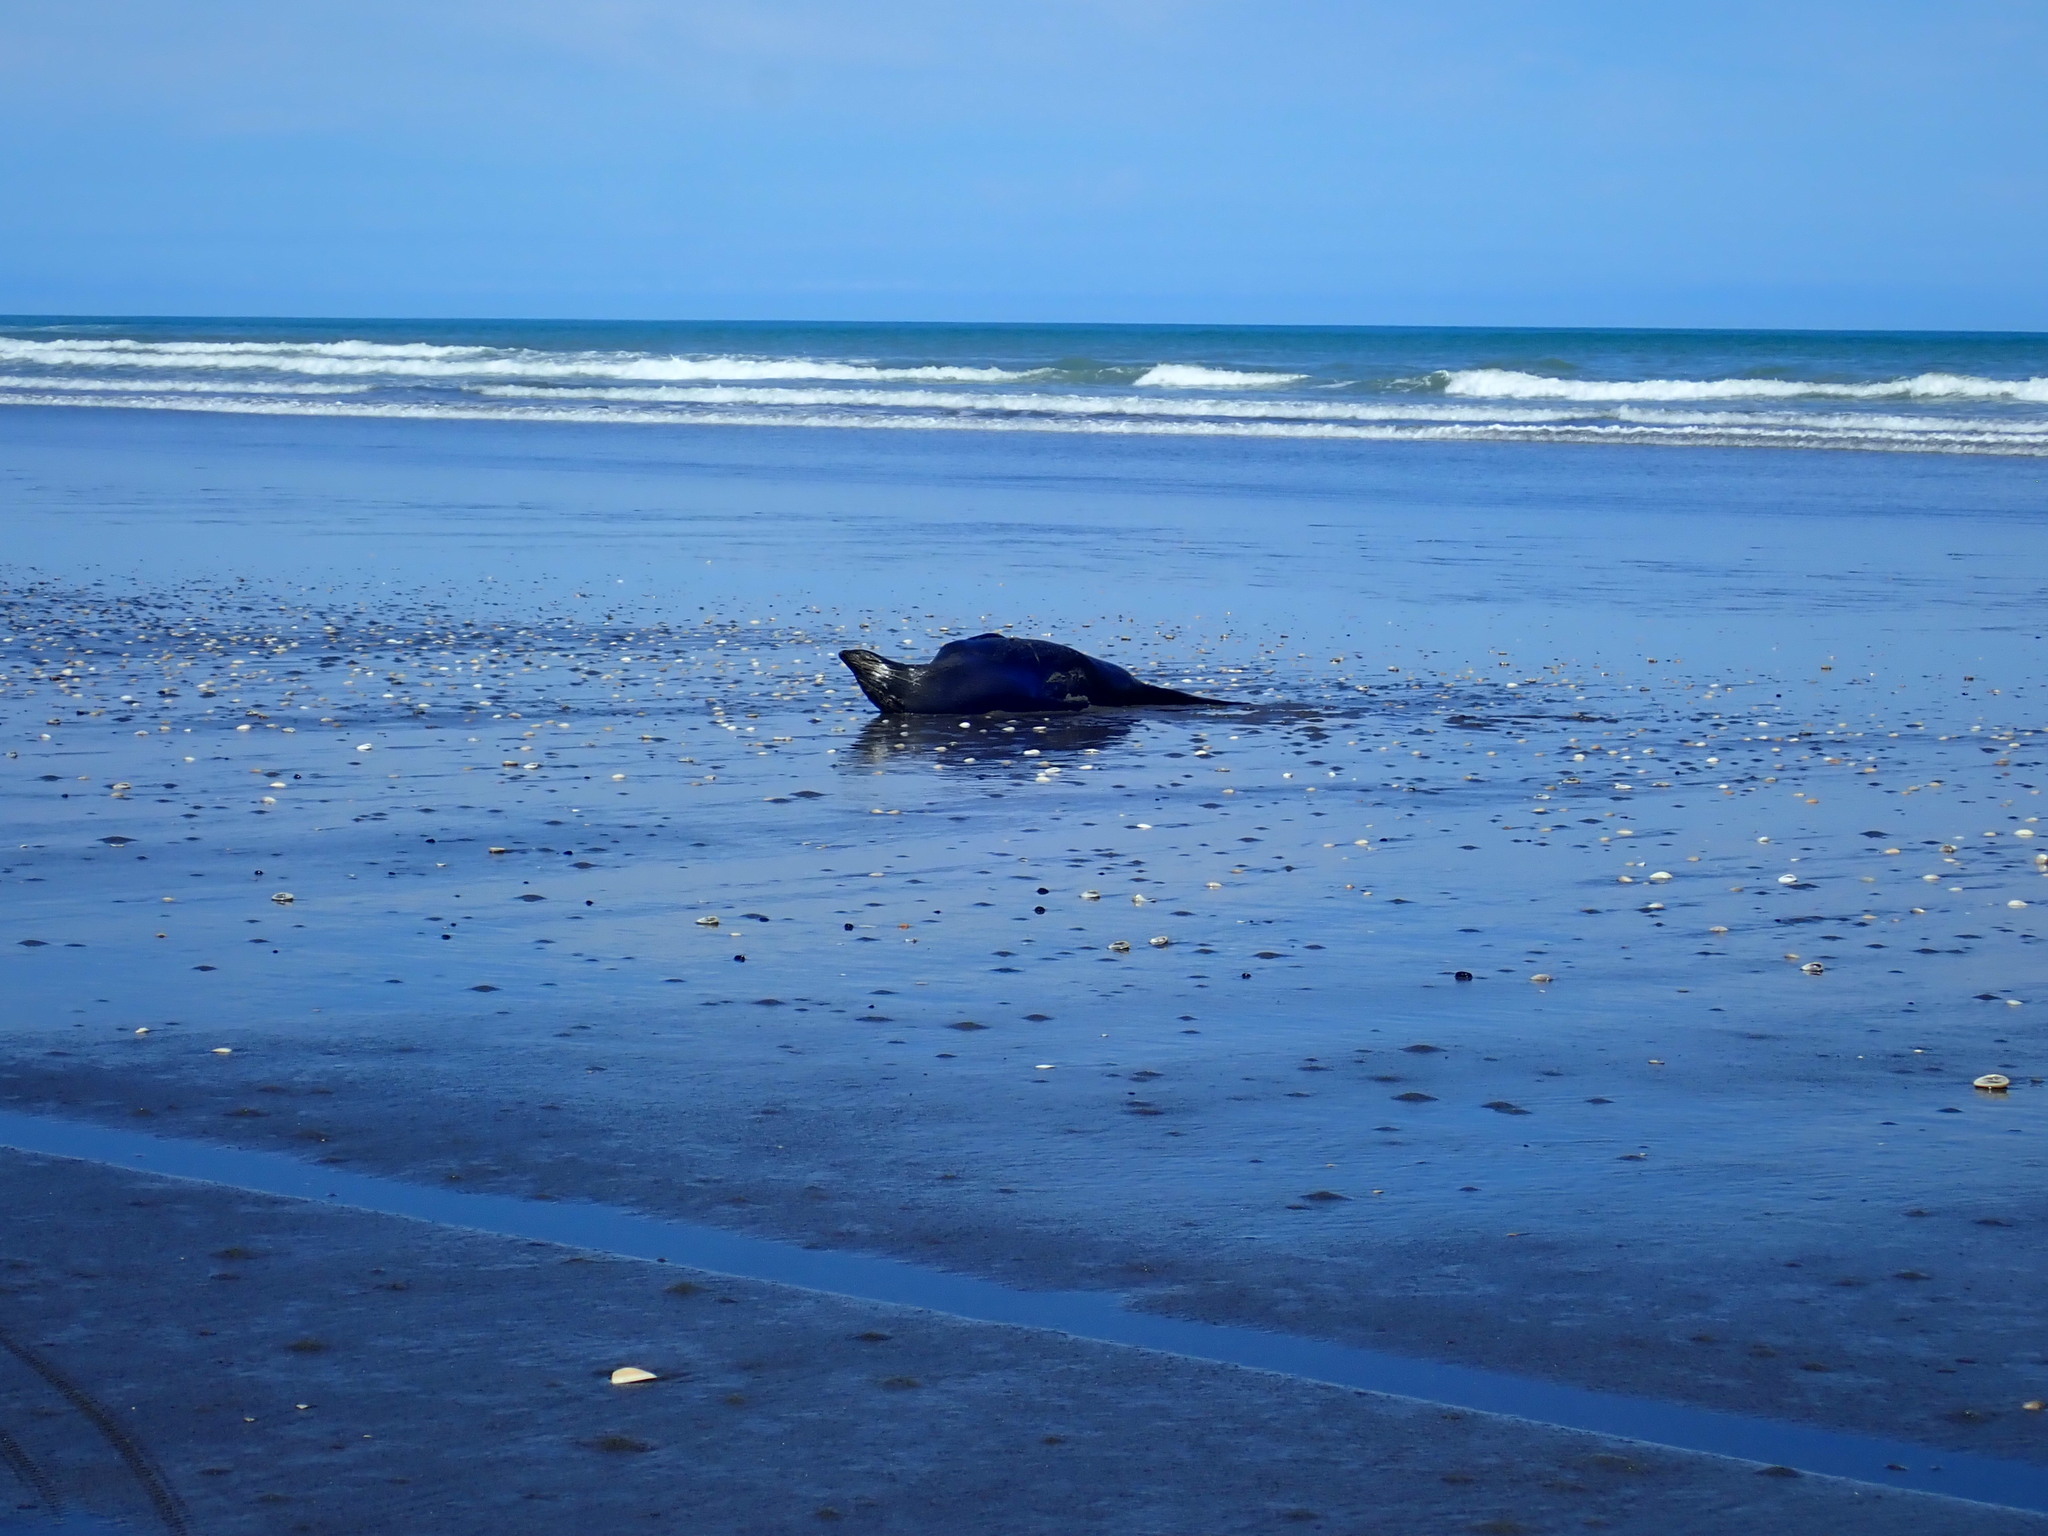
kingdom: Animalia
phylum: Chordata
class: Mammalia
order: Carnivora
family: Otariidae
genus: Arctocephalus
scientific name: Arctocephalus forsteri
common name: New zealand fur seal
